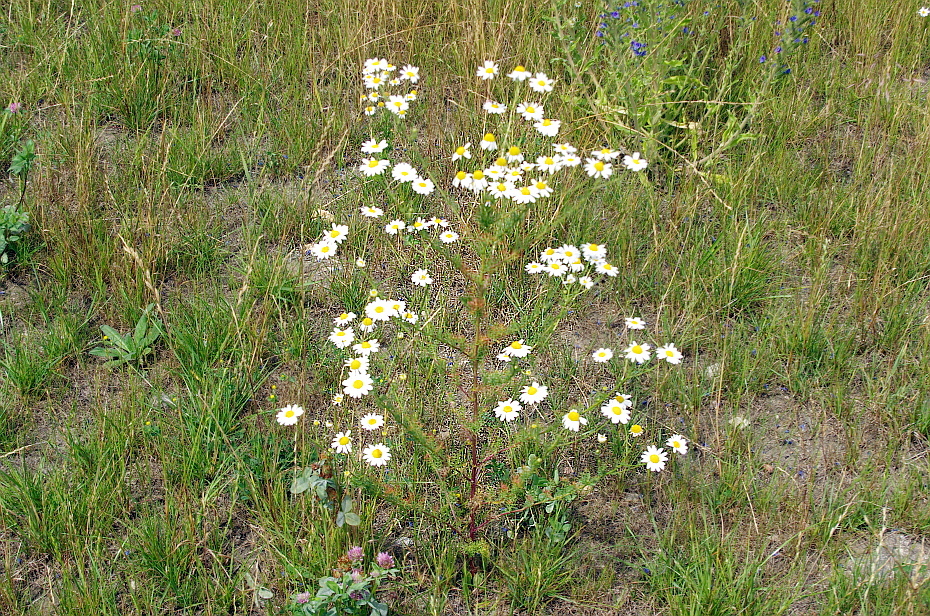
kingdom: Plantae
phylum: Tracheophyta
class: Magnoliopsida
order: Asterales
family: Asteraceae
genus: Tripleurospermum
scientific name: Tripleurospermum inodorum
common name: Scentless mayweed
